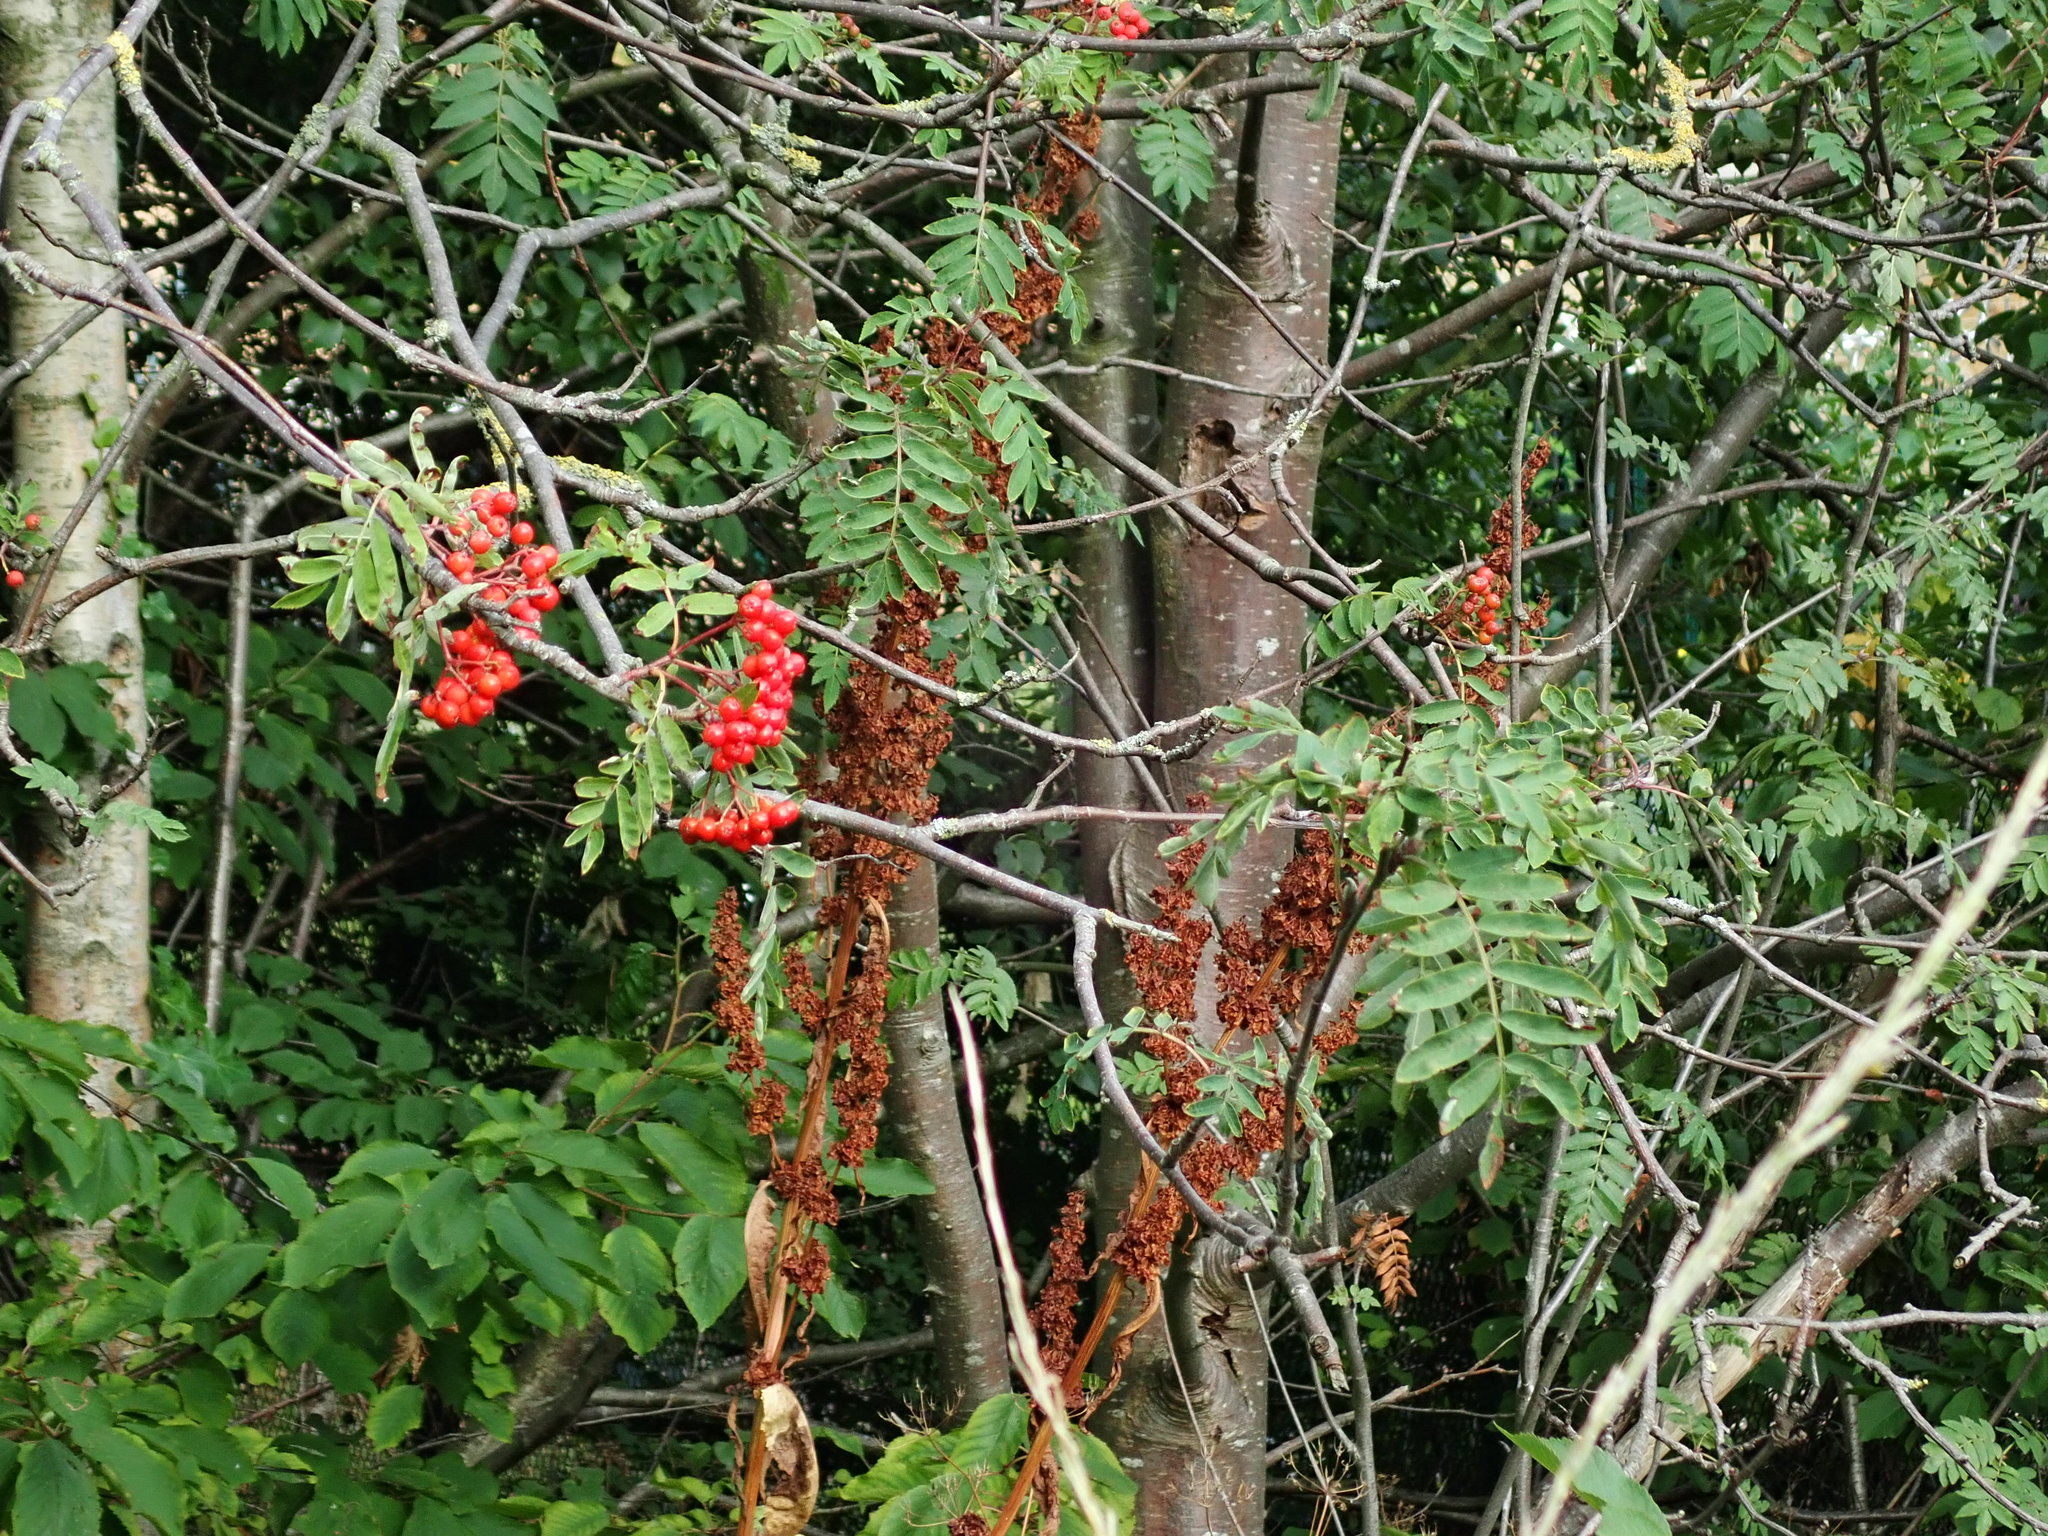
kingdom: Plantae
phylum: Tracheophyta
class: Magnoliopsida
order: Rosales
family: Rosaceae
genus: Sorbus
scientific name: Sorbus aucuparia
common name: Rowan
